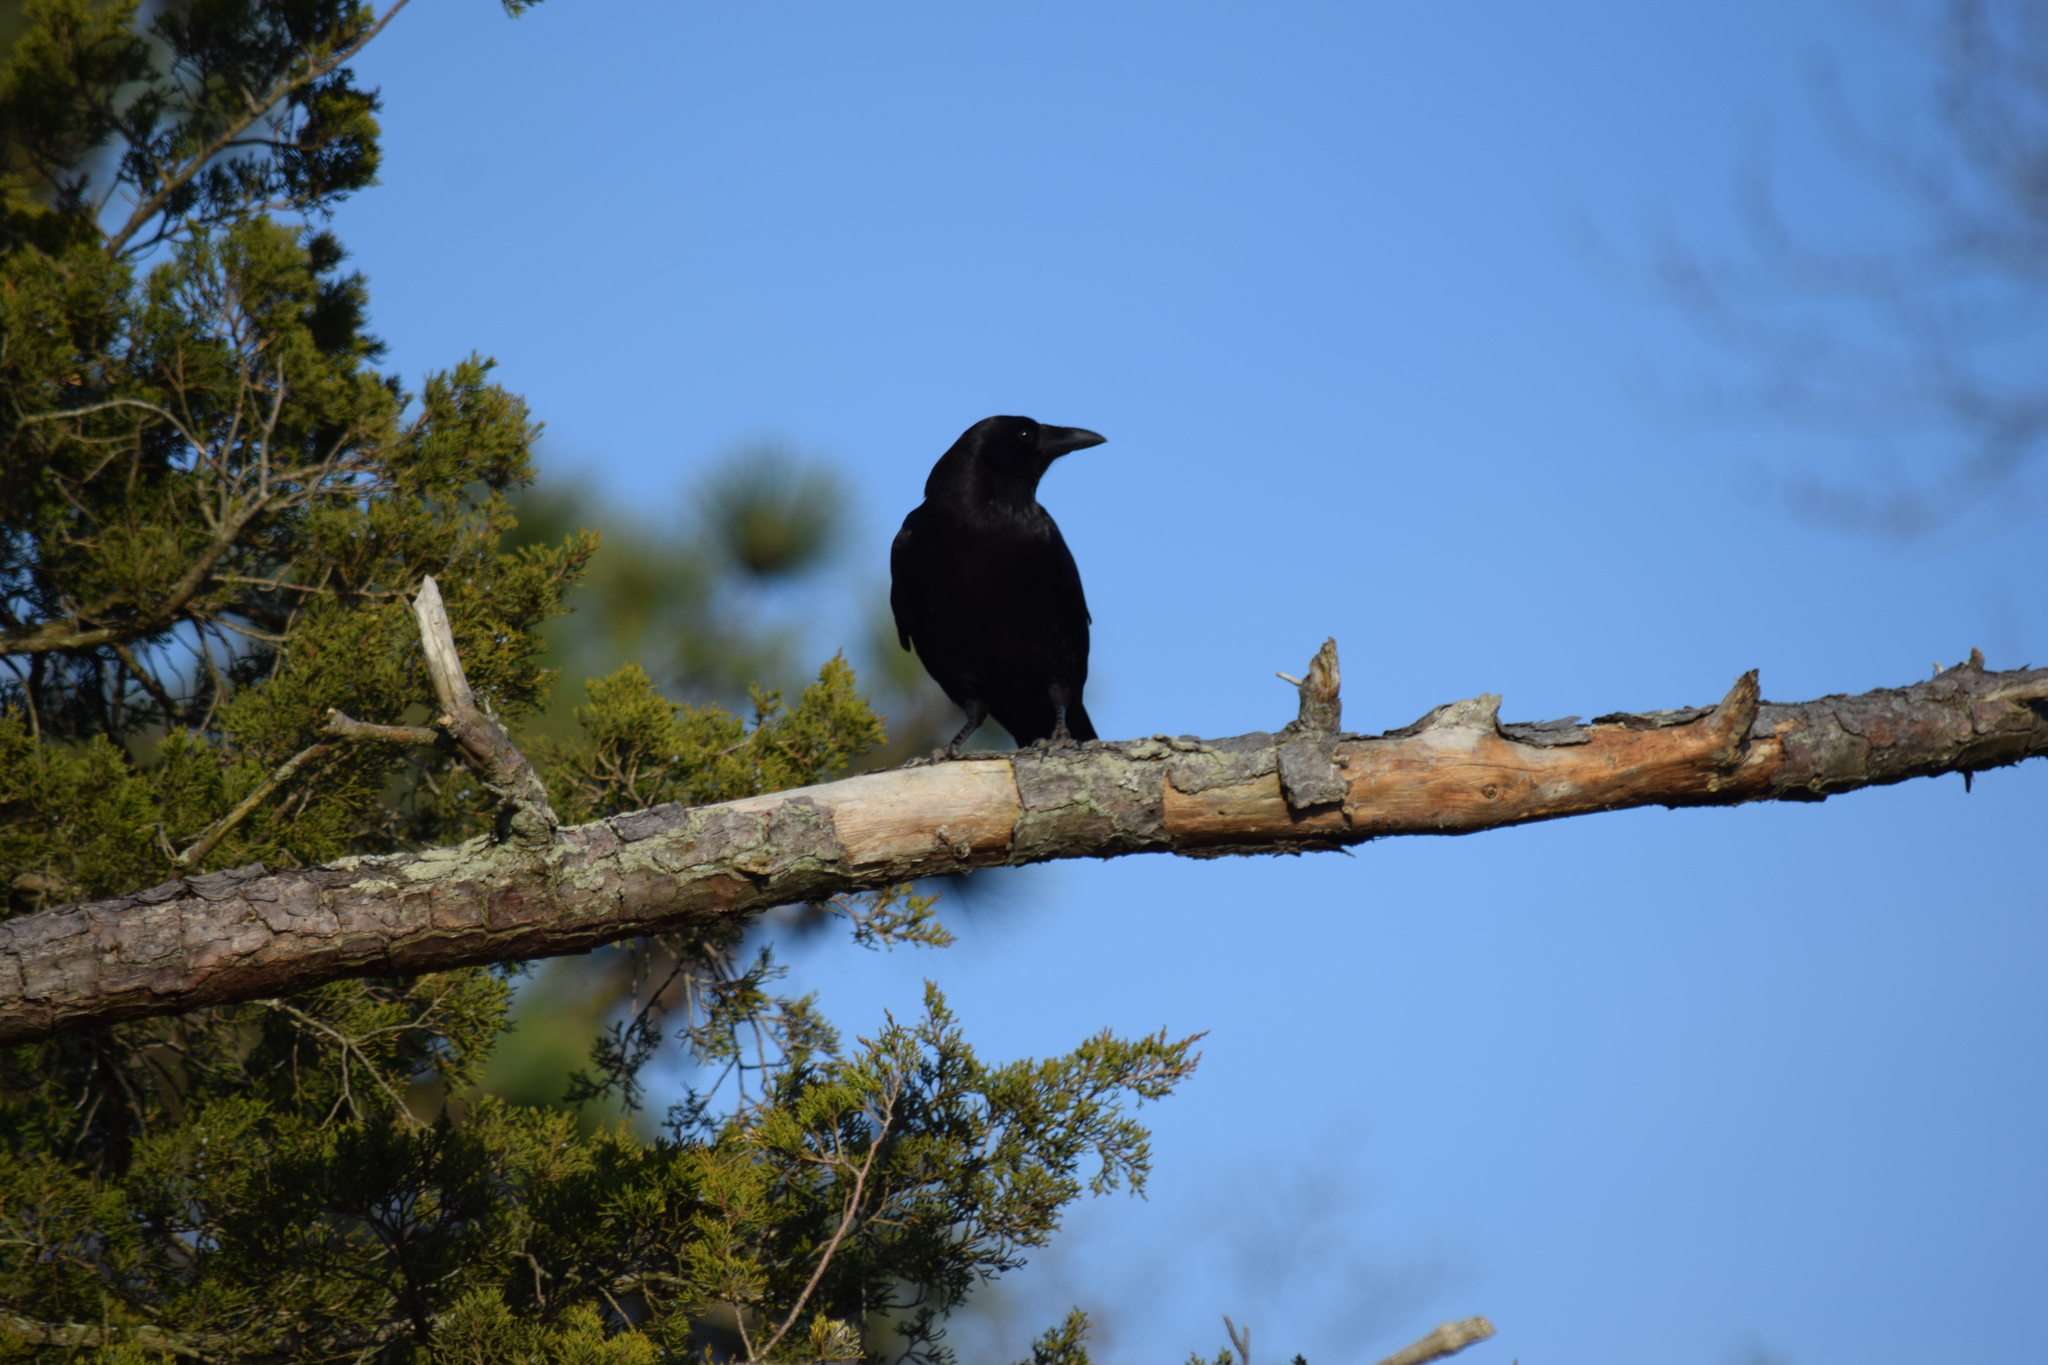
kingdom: Animalia
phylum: Chordata
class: Aves
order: Passeriformes
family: Corvidae
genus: Corvus
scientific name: Corvus
